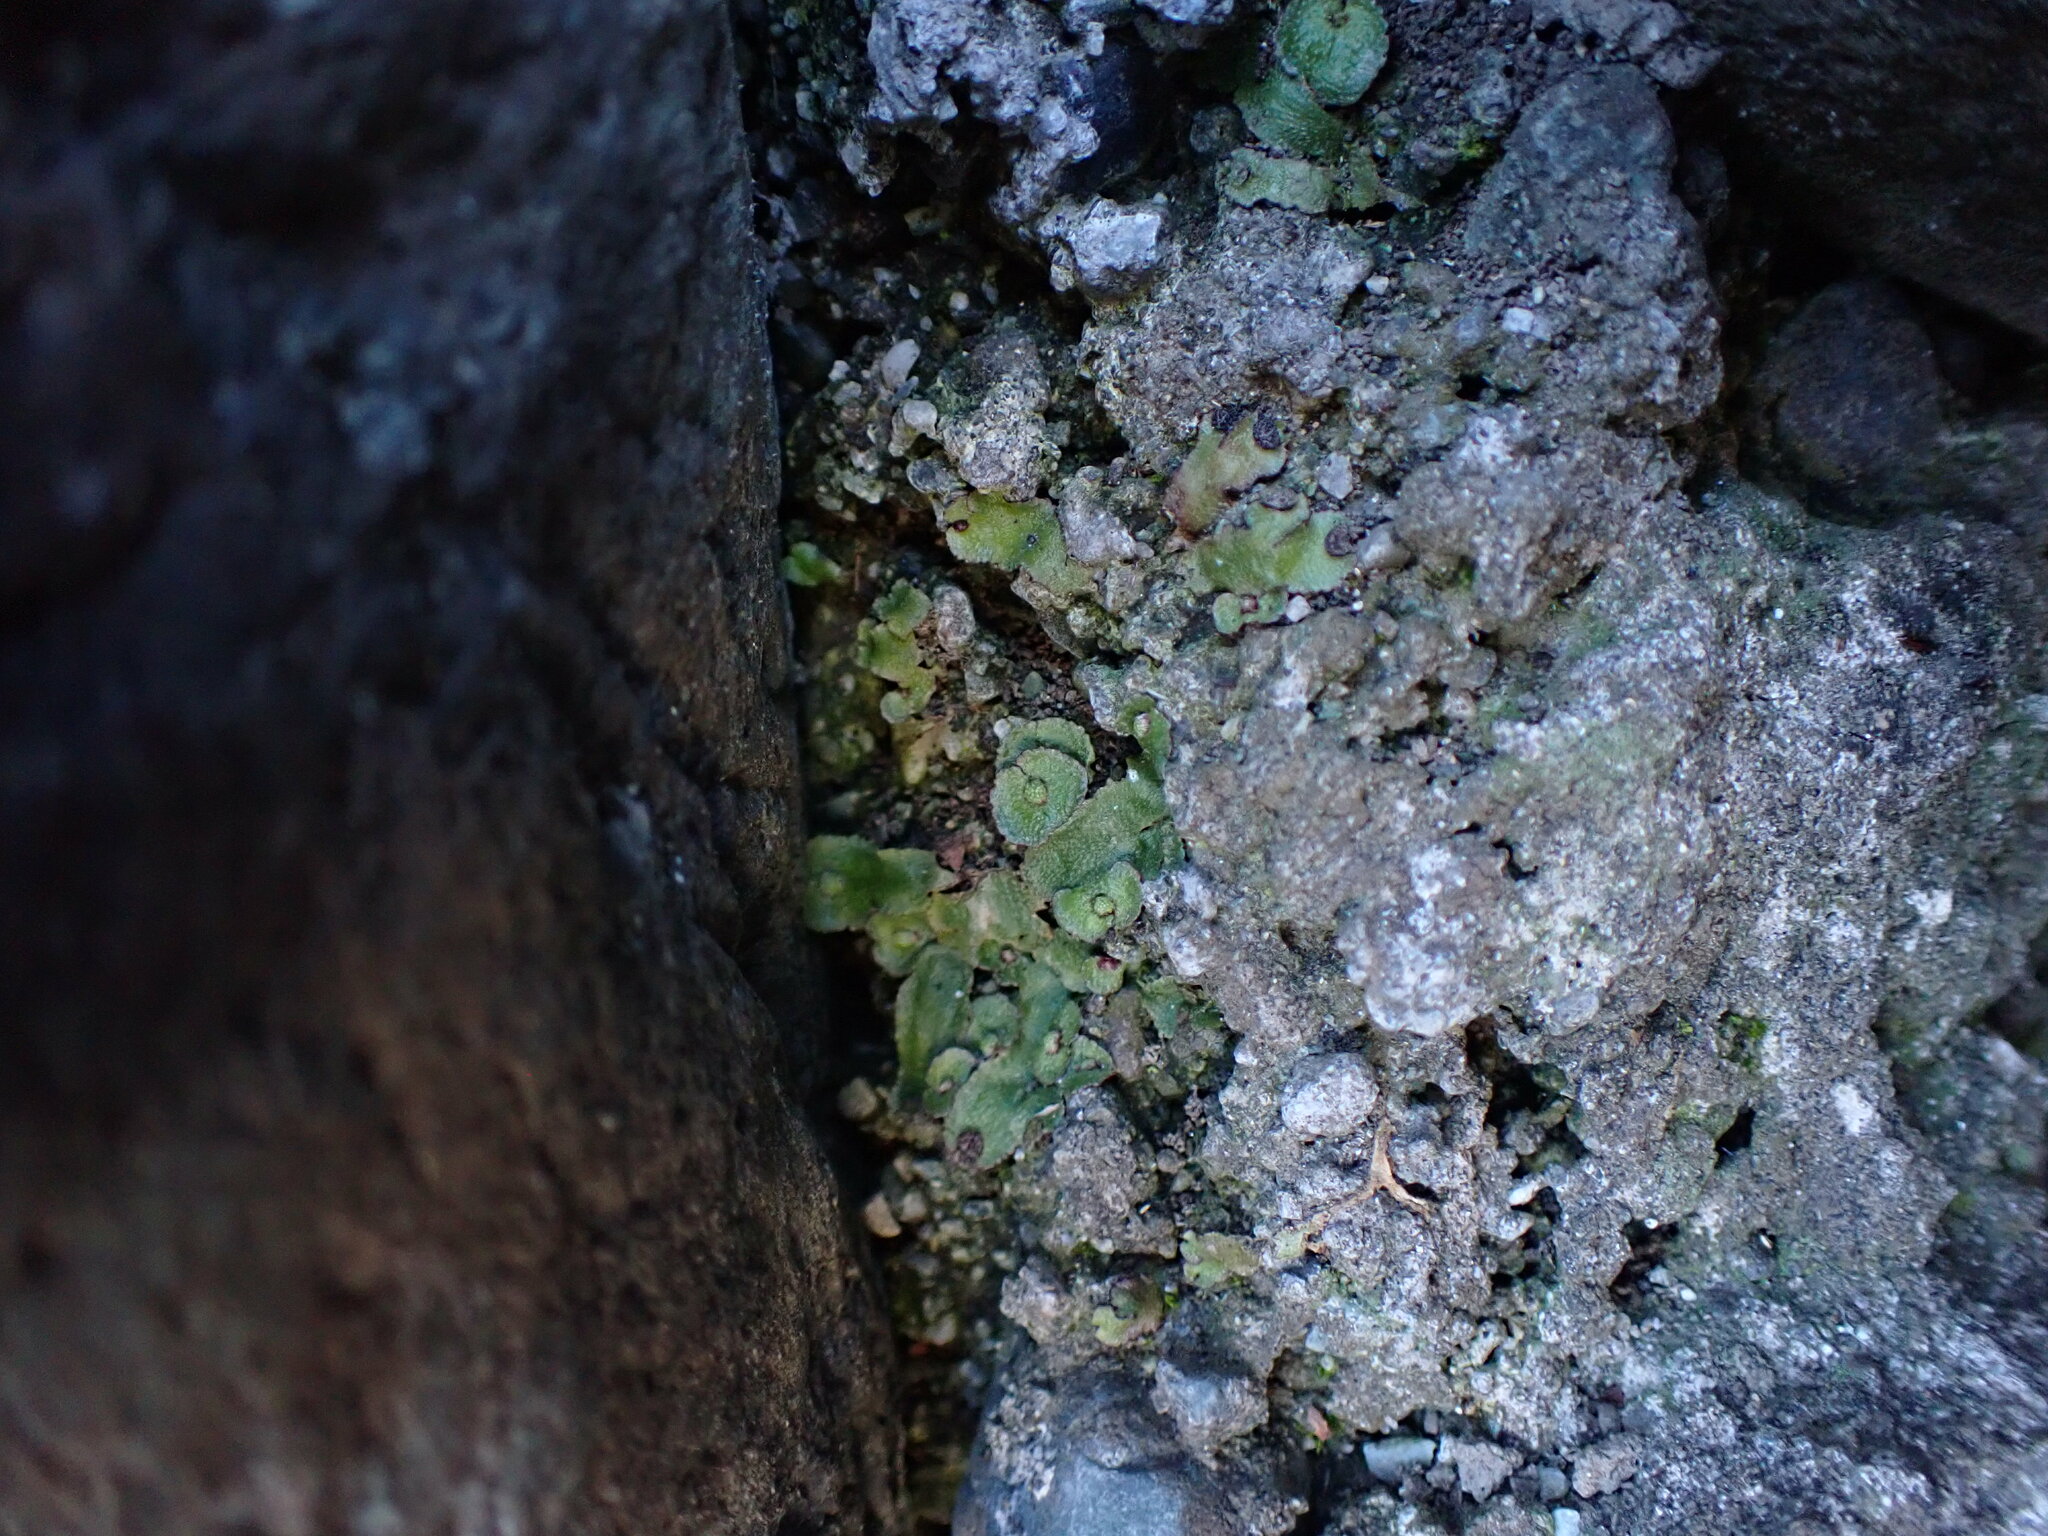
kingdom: Plantae
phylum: Marchantiophyta
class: Marchantiopsida
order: Marchantiales
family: Aytoniaceae
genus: Reboulia
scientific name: Reboulia hemisphaerica
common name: Purple-margined liverwort
